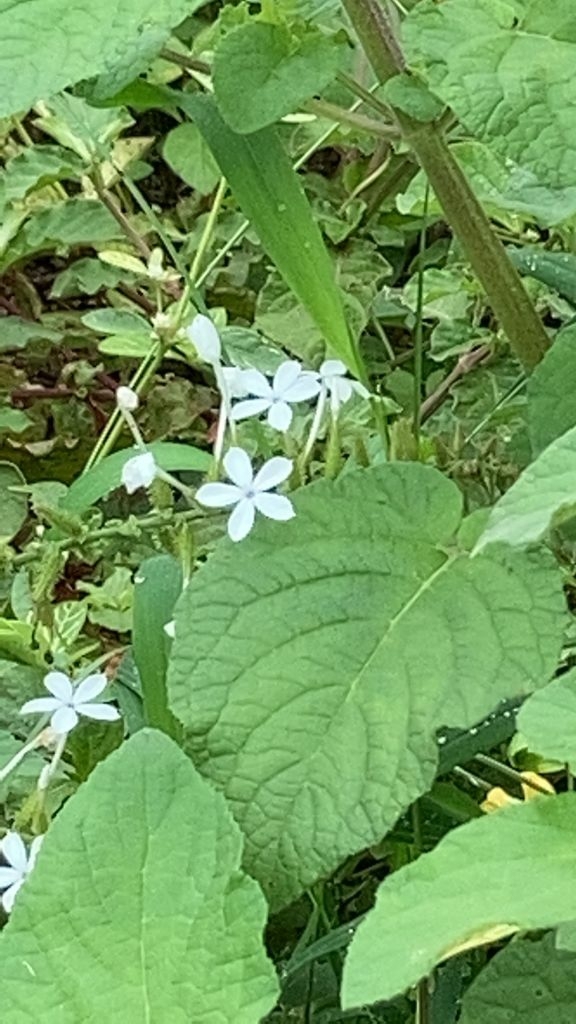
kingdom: Plantae
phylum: Tracheophyta
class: Magnoliopsida
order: Caryophyllales
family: Plumbaginaceae
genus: Plumbago
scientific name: Plumbago zeylanica
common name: Doctorbush
